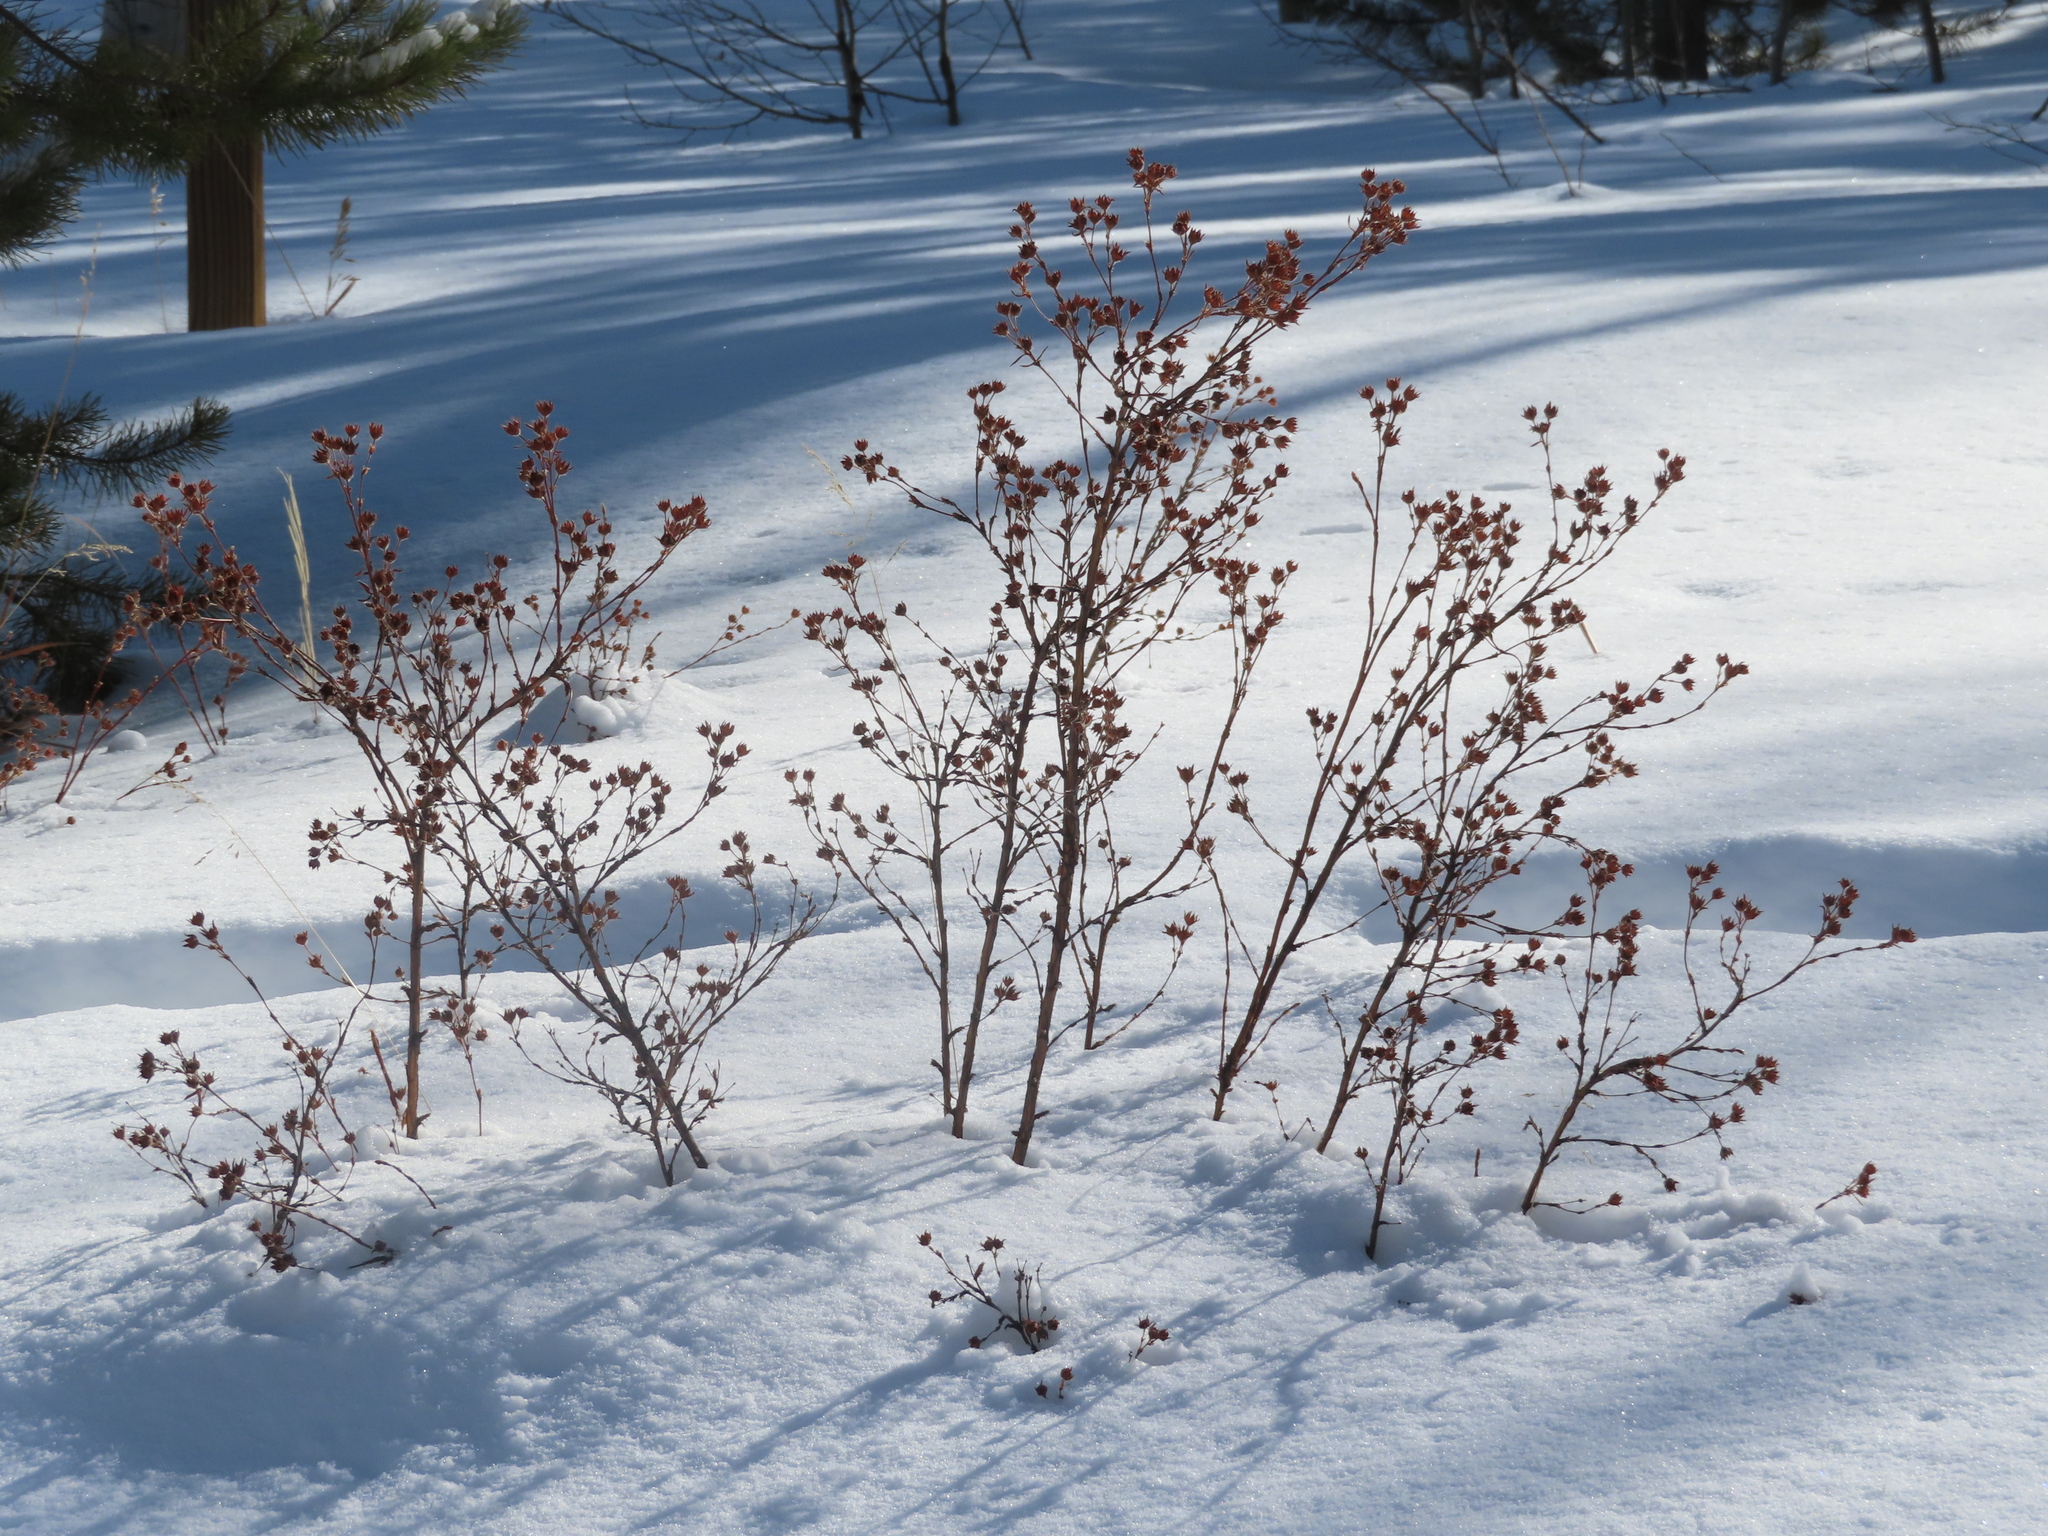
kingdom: Plantae
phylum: Tracheophyta
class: Magnoliopsida
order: Rosales
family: Rosaceae
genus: Dasiphora
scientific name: Dasiphora fruticosa
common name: Shrubby cinquefoil
